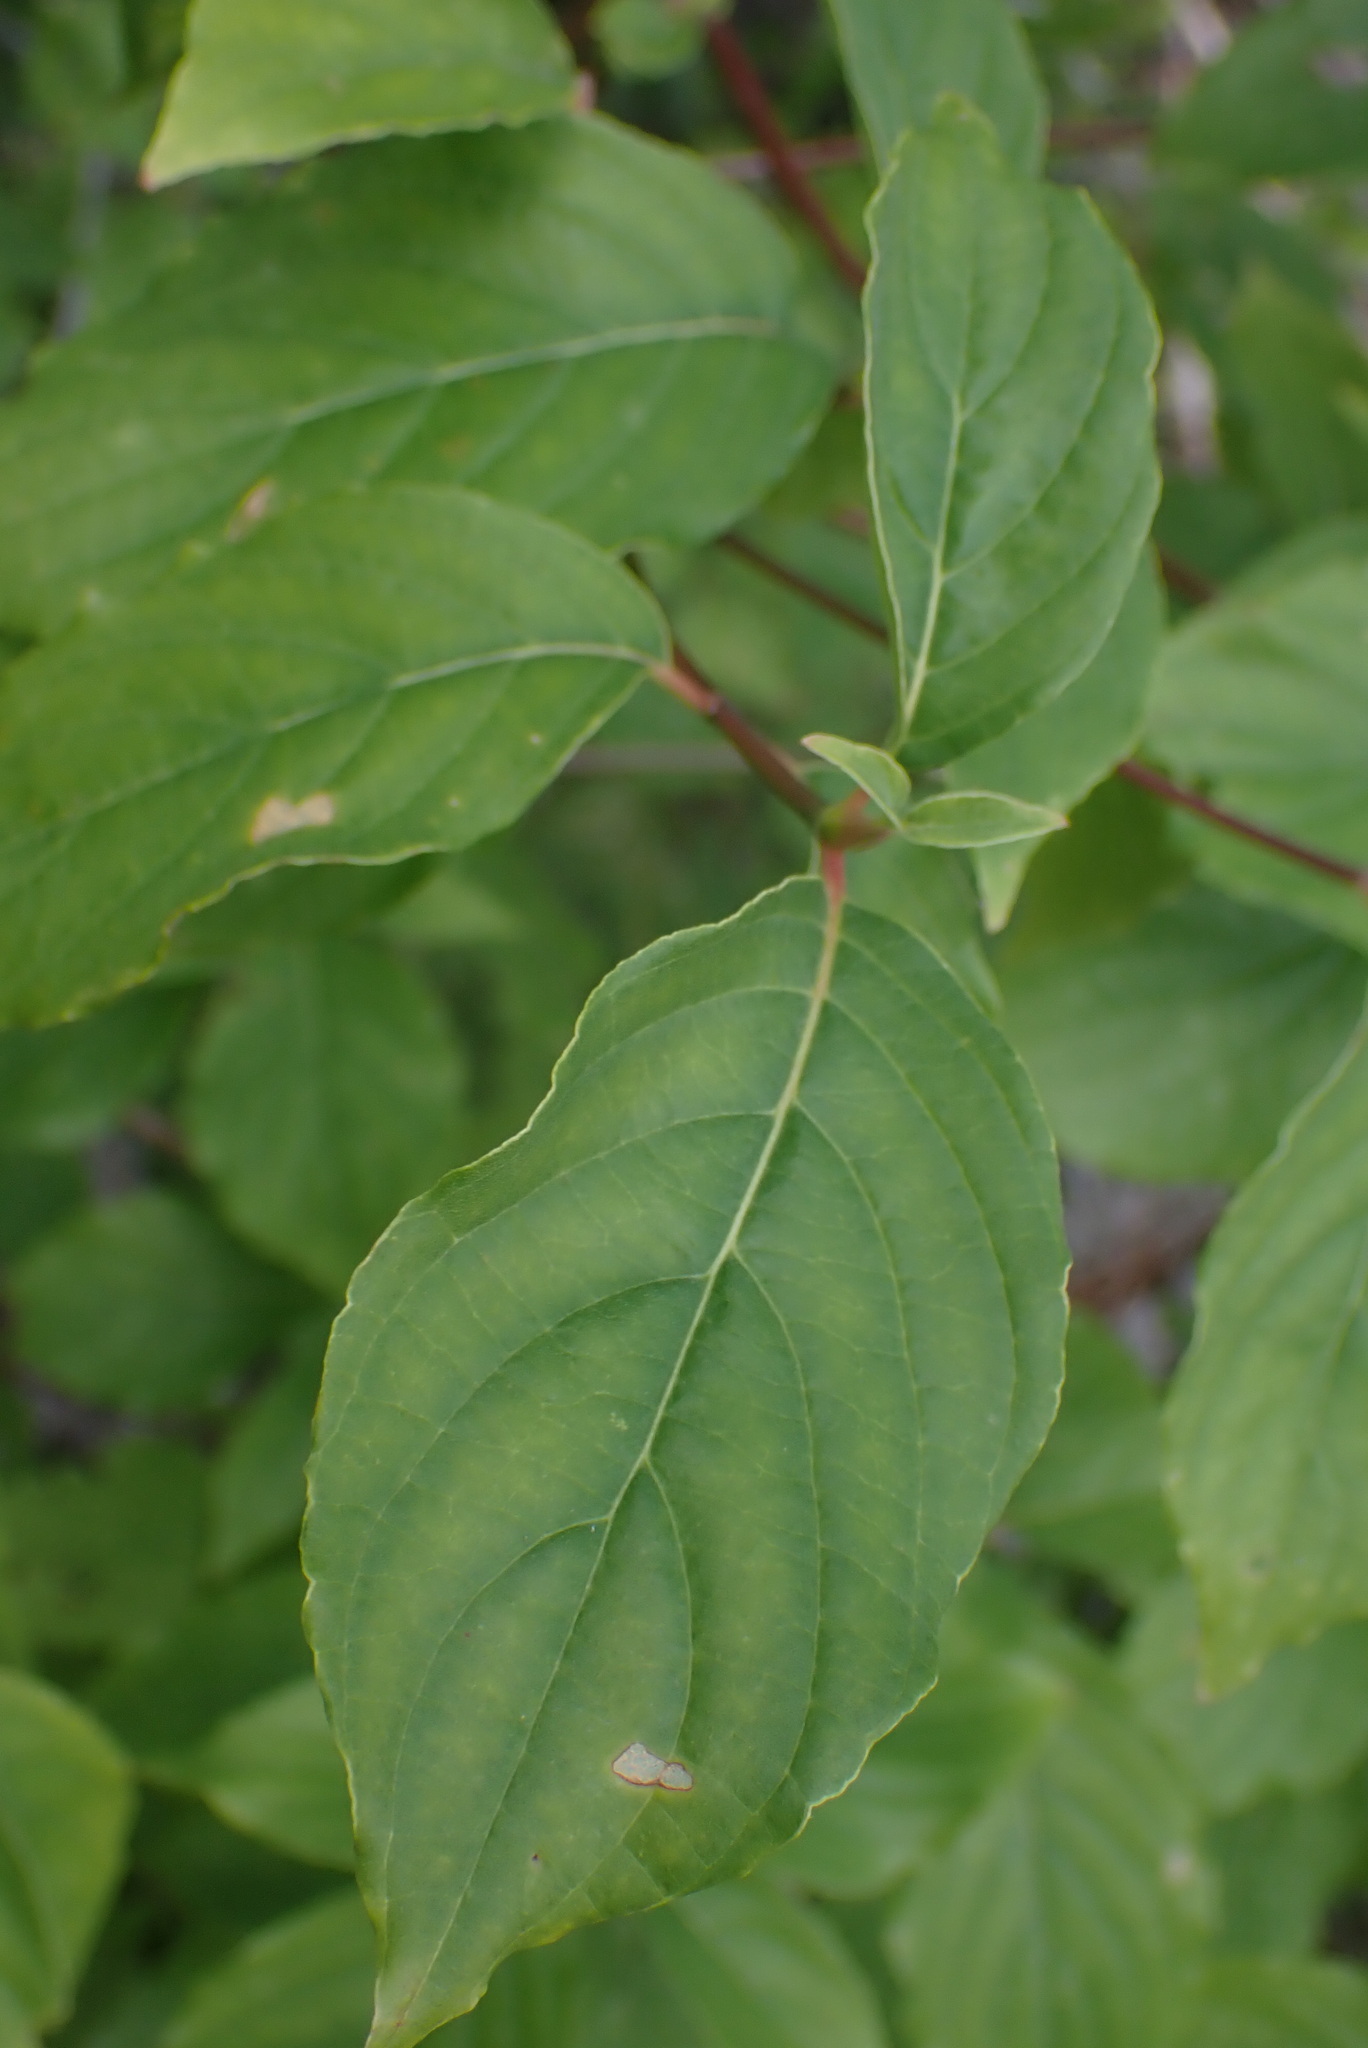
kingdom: Plantae
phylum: Tracheophyta
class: Magnoliopsida
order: Cornales
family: Cornaceae
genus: Cornus
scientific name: Cornus nuttallii
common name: Pacific dogwood
